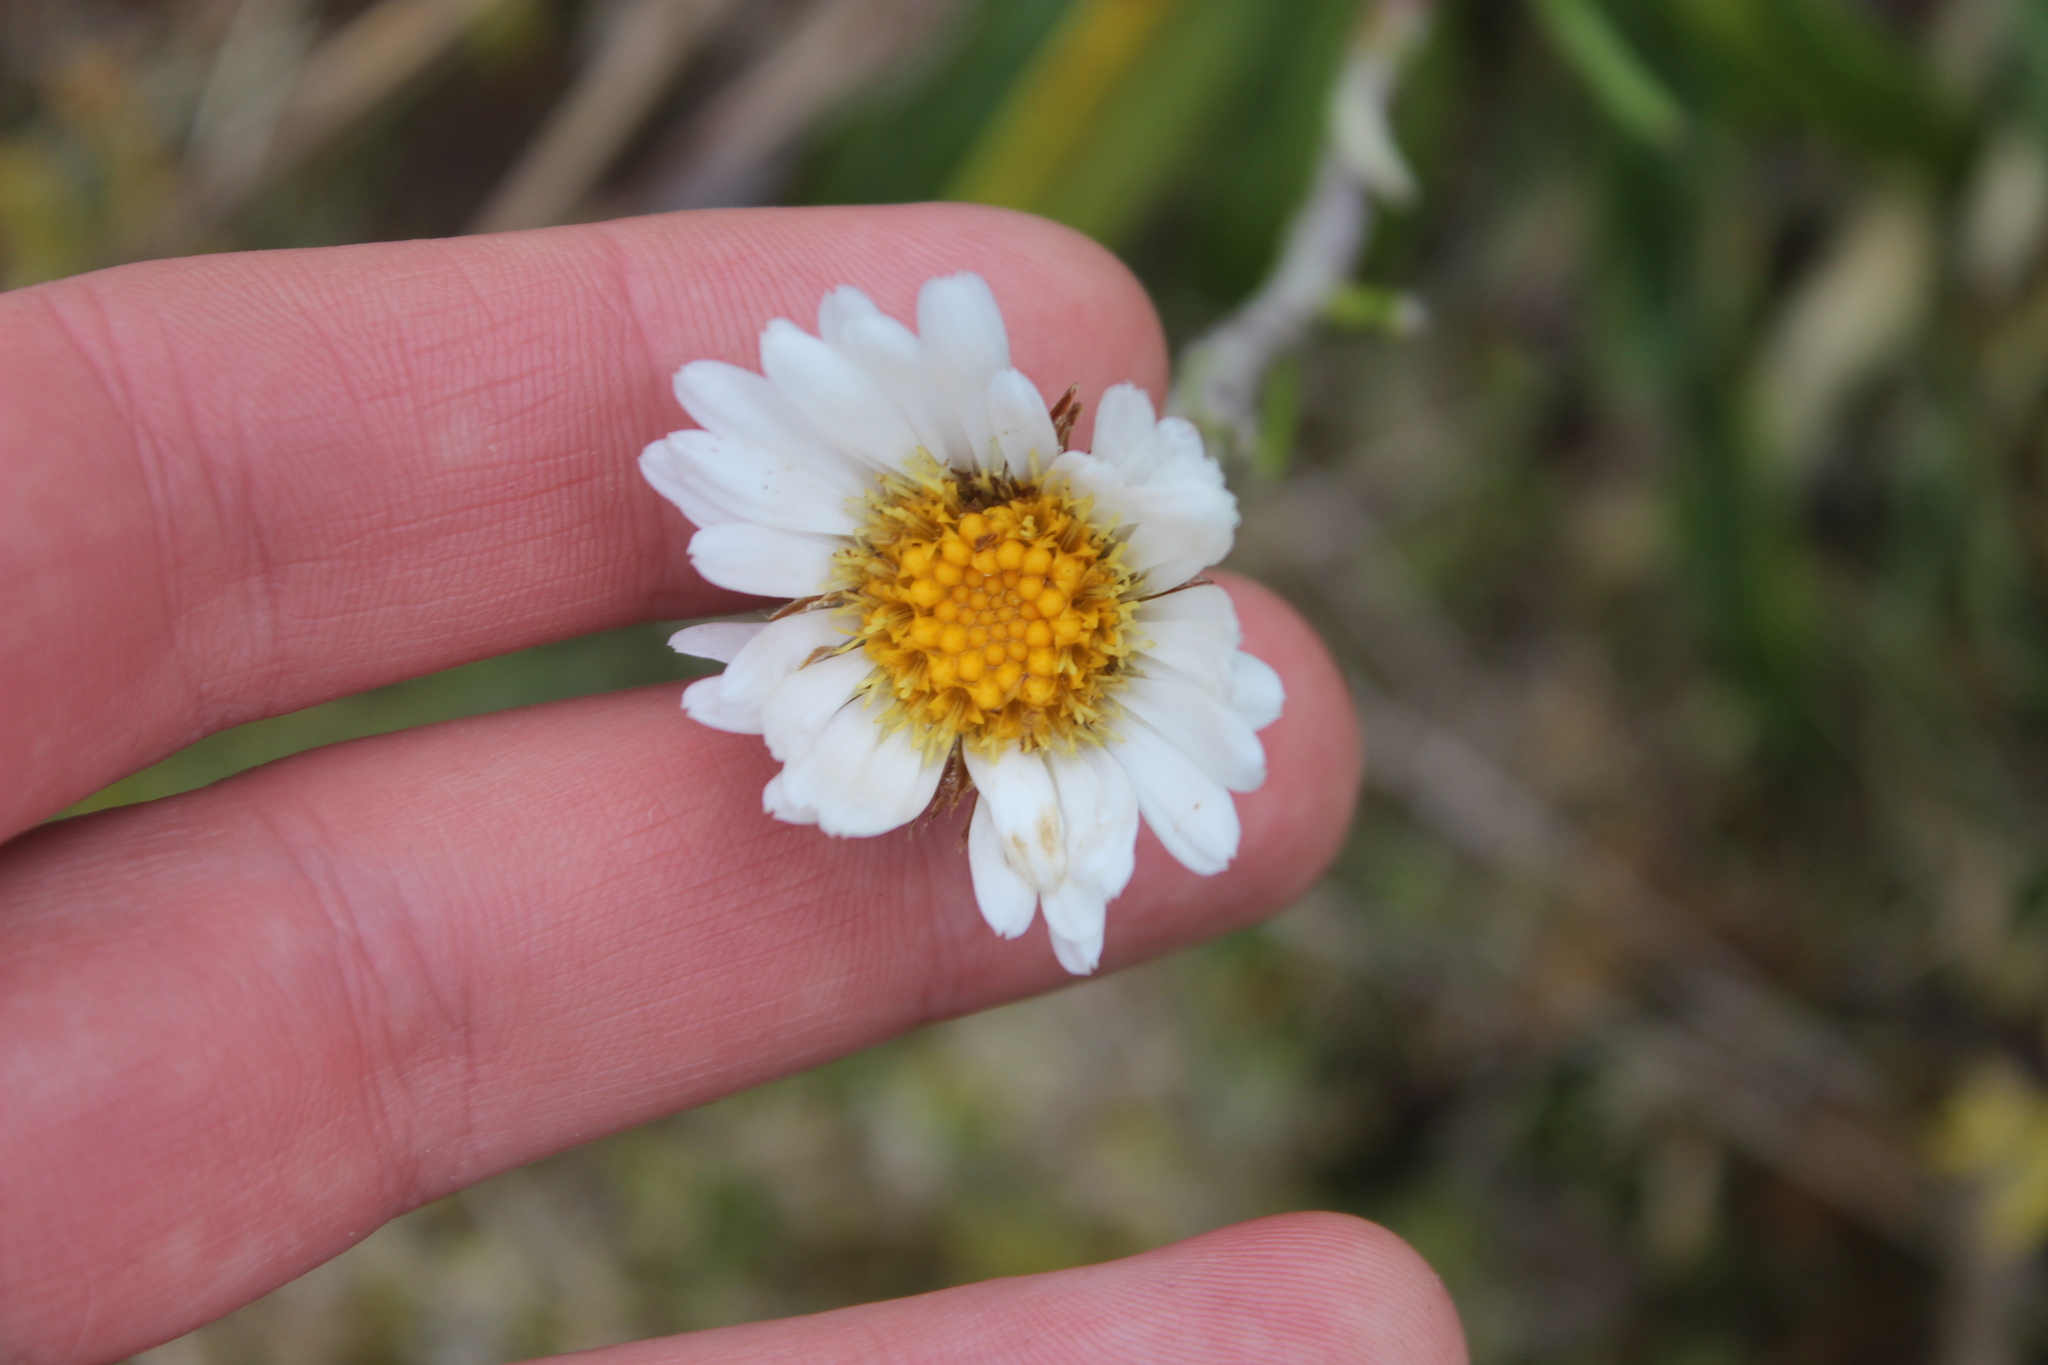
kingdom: Plantae
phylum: Tracheophyta
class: Magnoliopsida
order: Asterales
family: Asteraceae
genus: Celmisia
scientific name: Celmisia spectabilis
